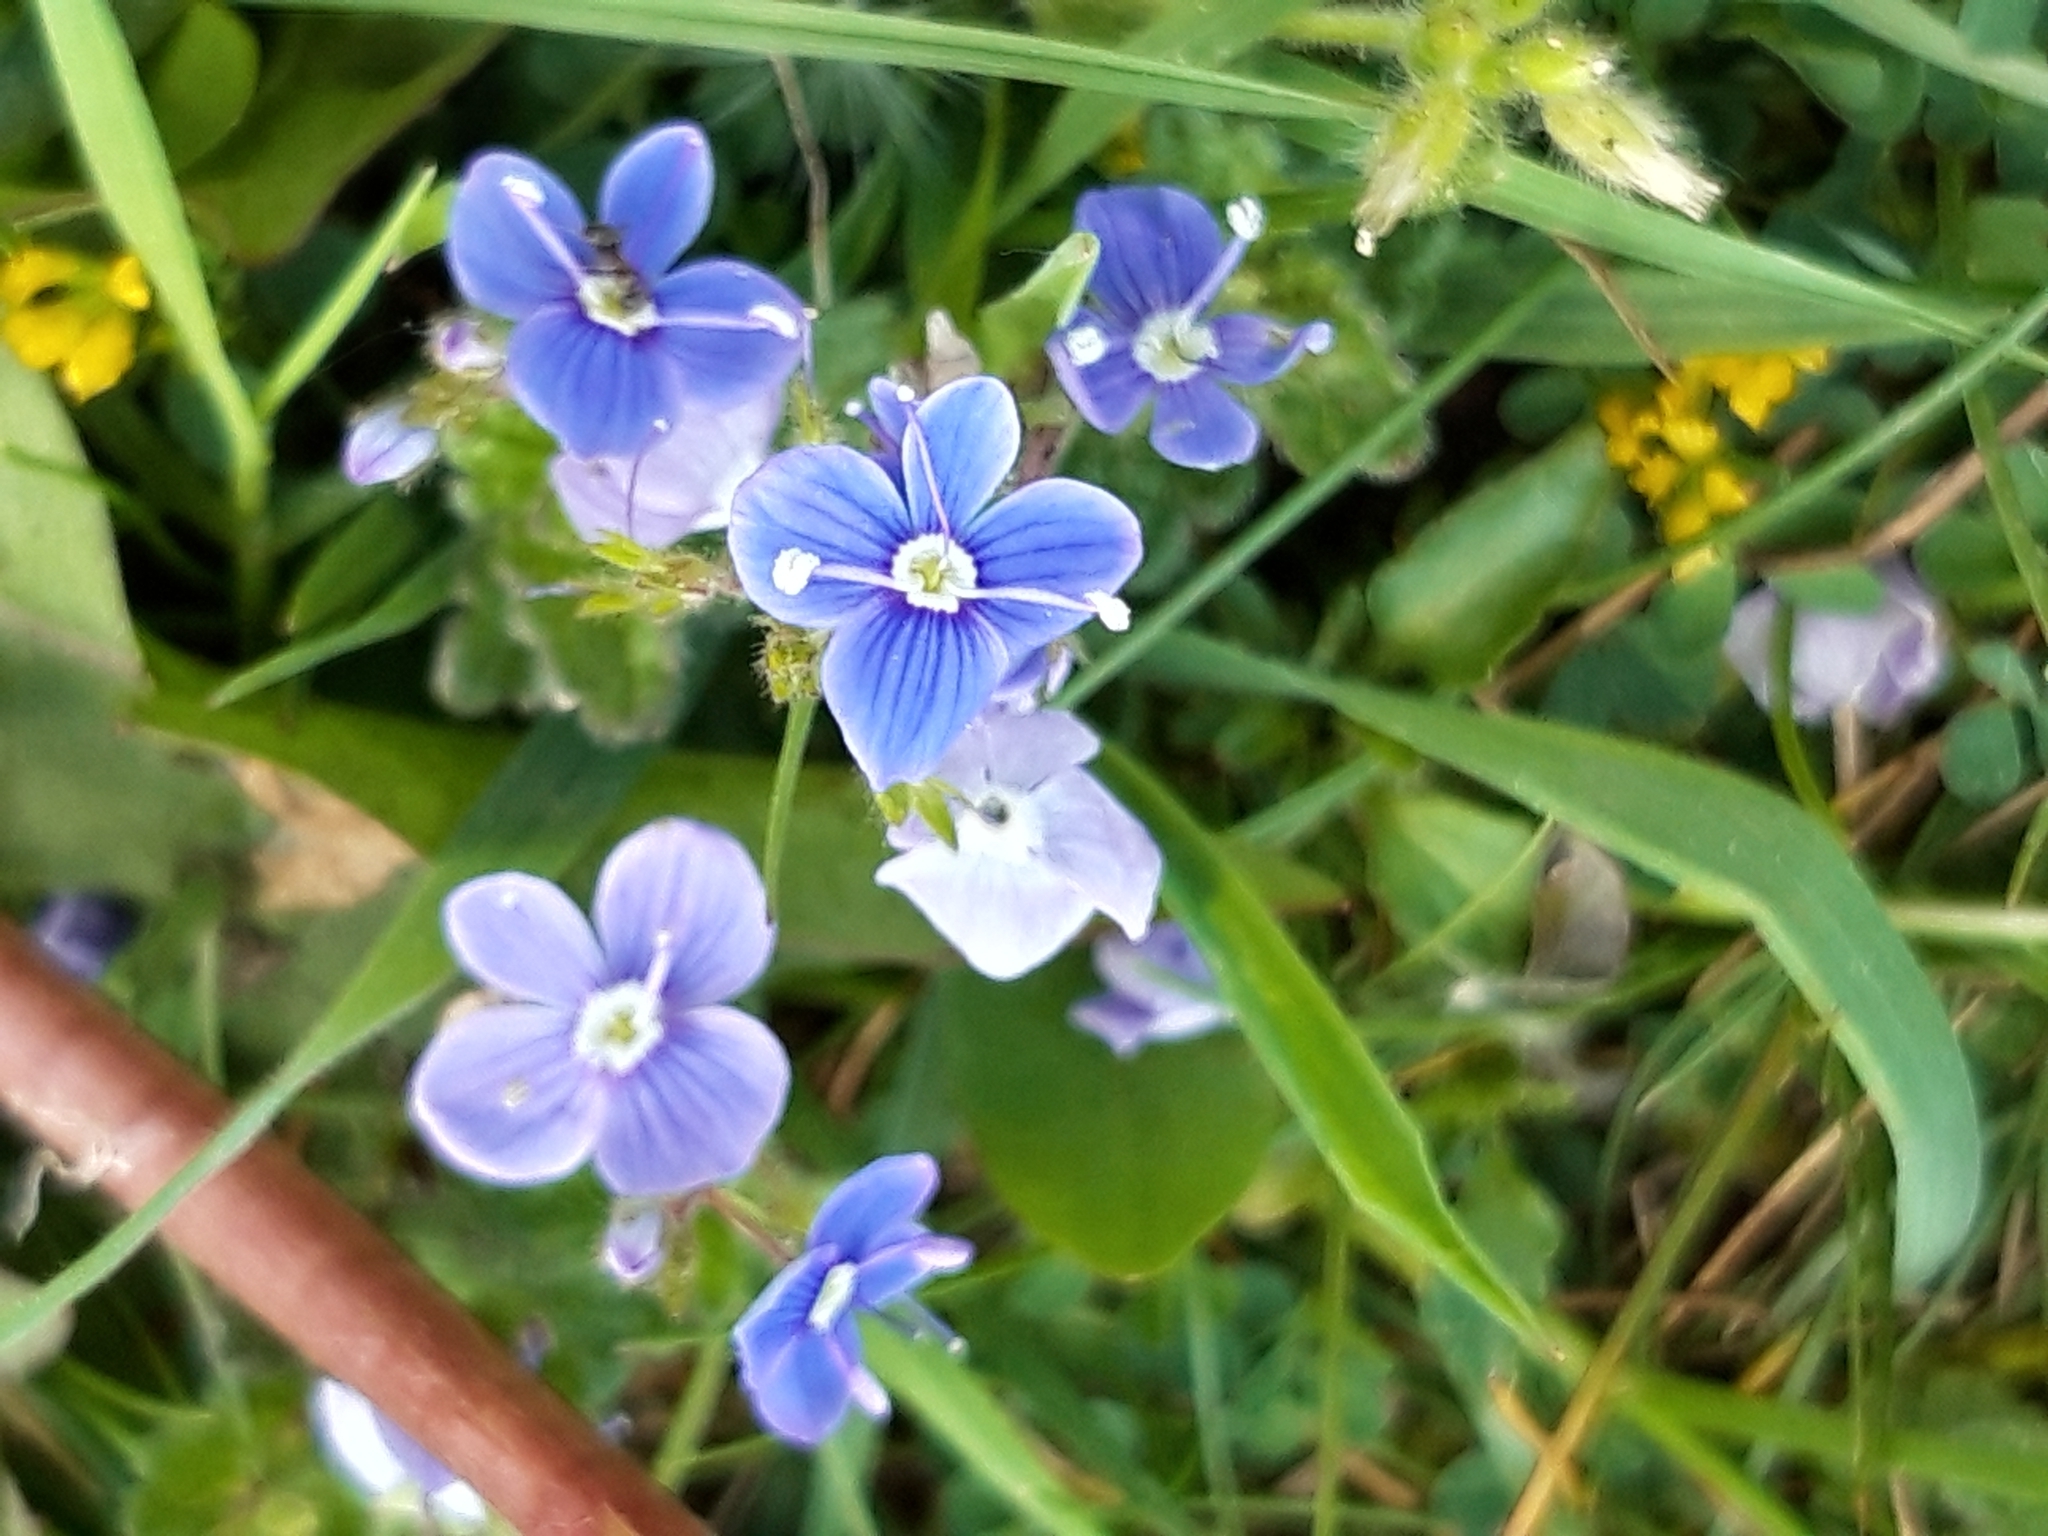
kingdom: Plantae
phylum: Tracheophyta
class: Magnoliopsida
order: Lamiales
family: Plantaginaceae
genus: Veronica
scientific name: Veronica chamaedrys
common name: Germander speedwell
